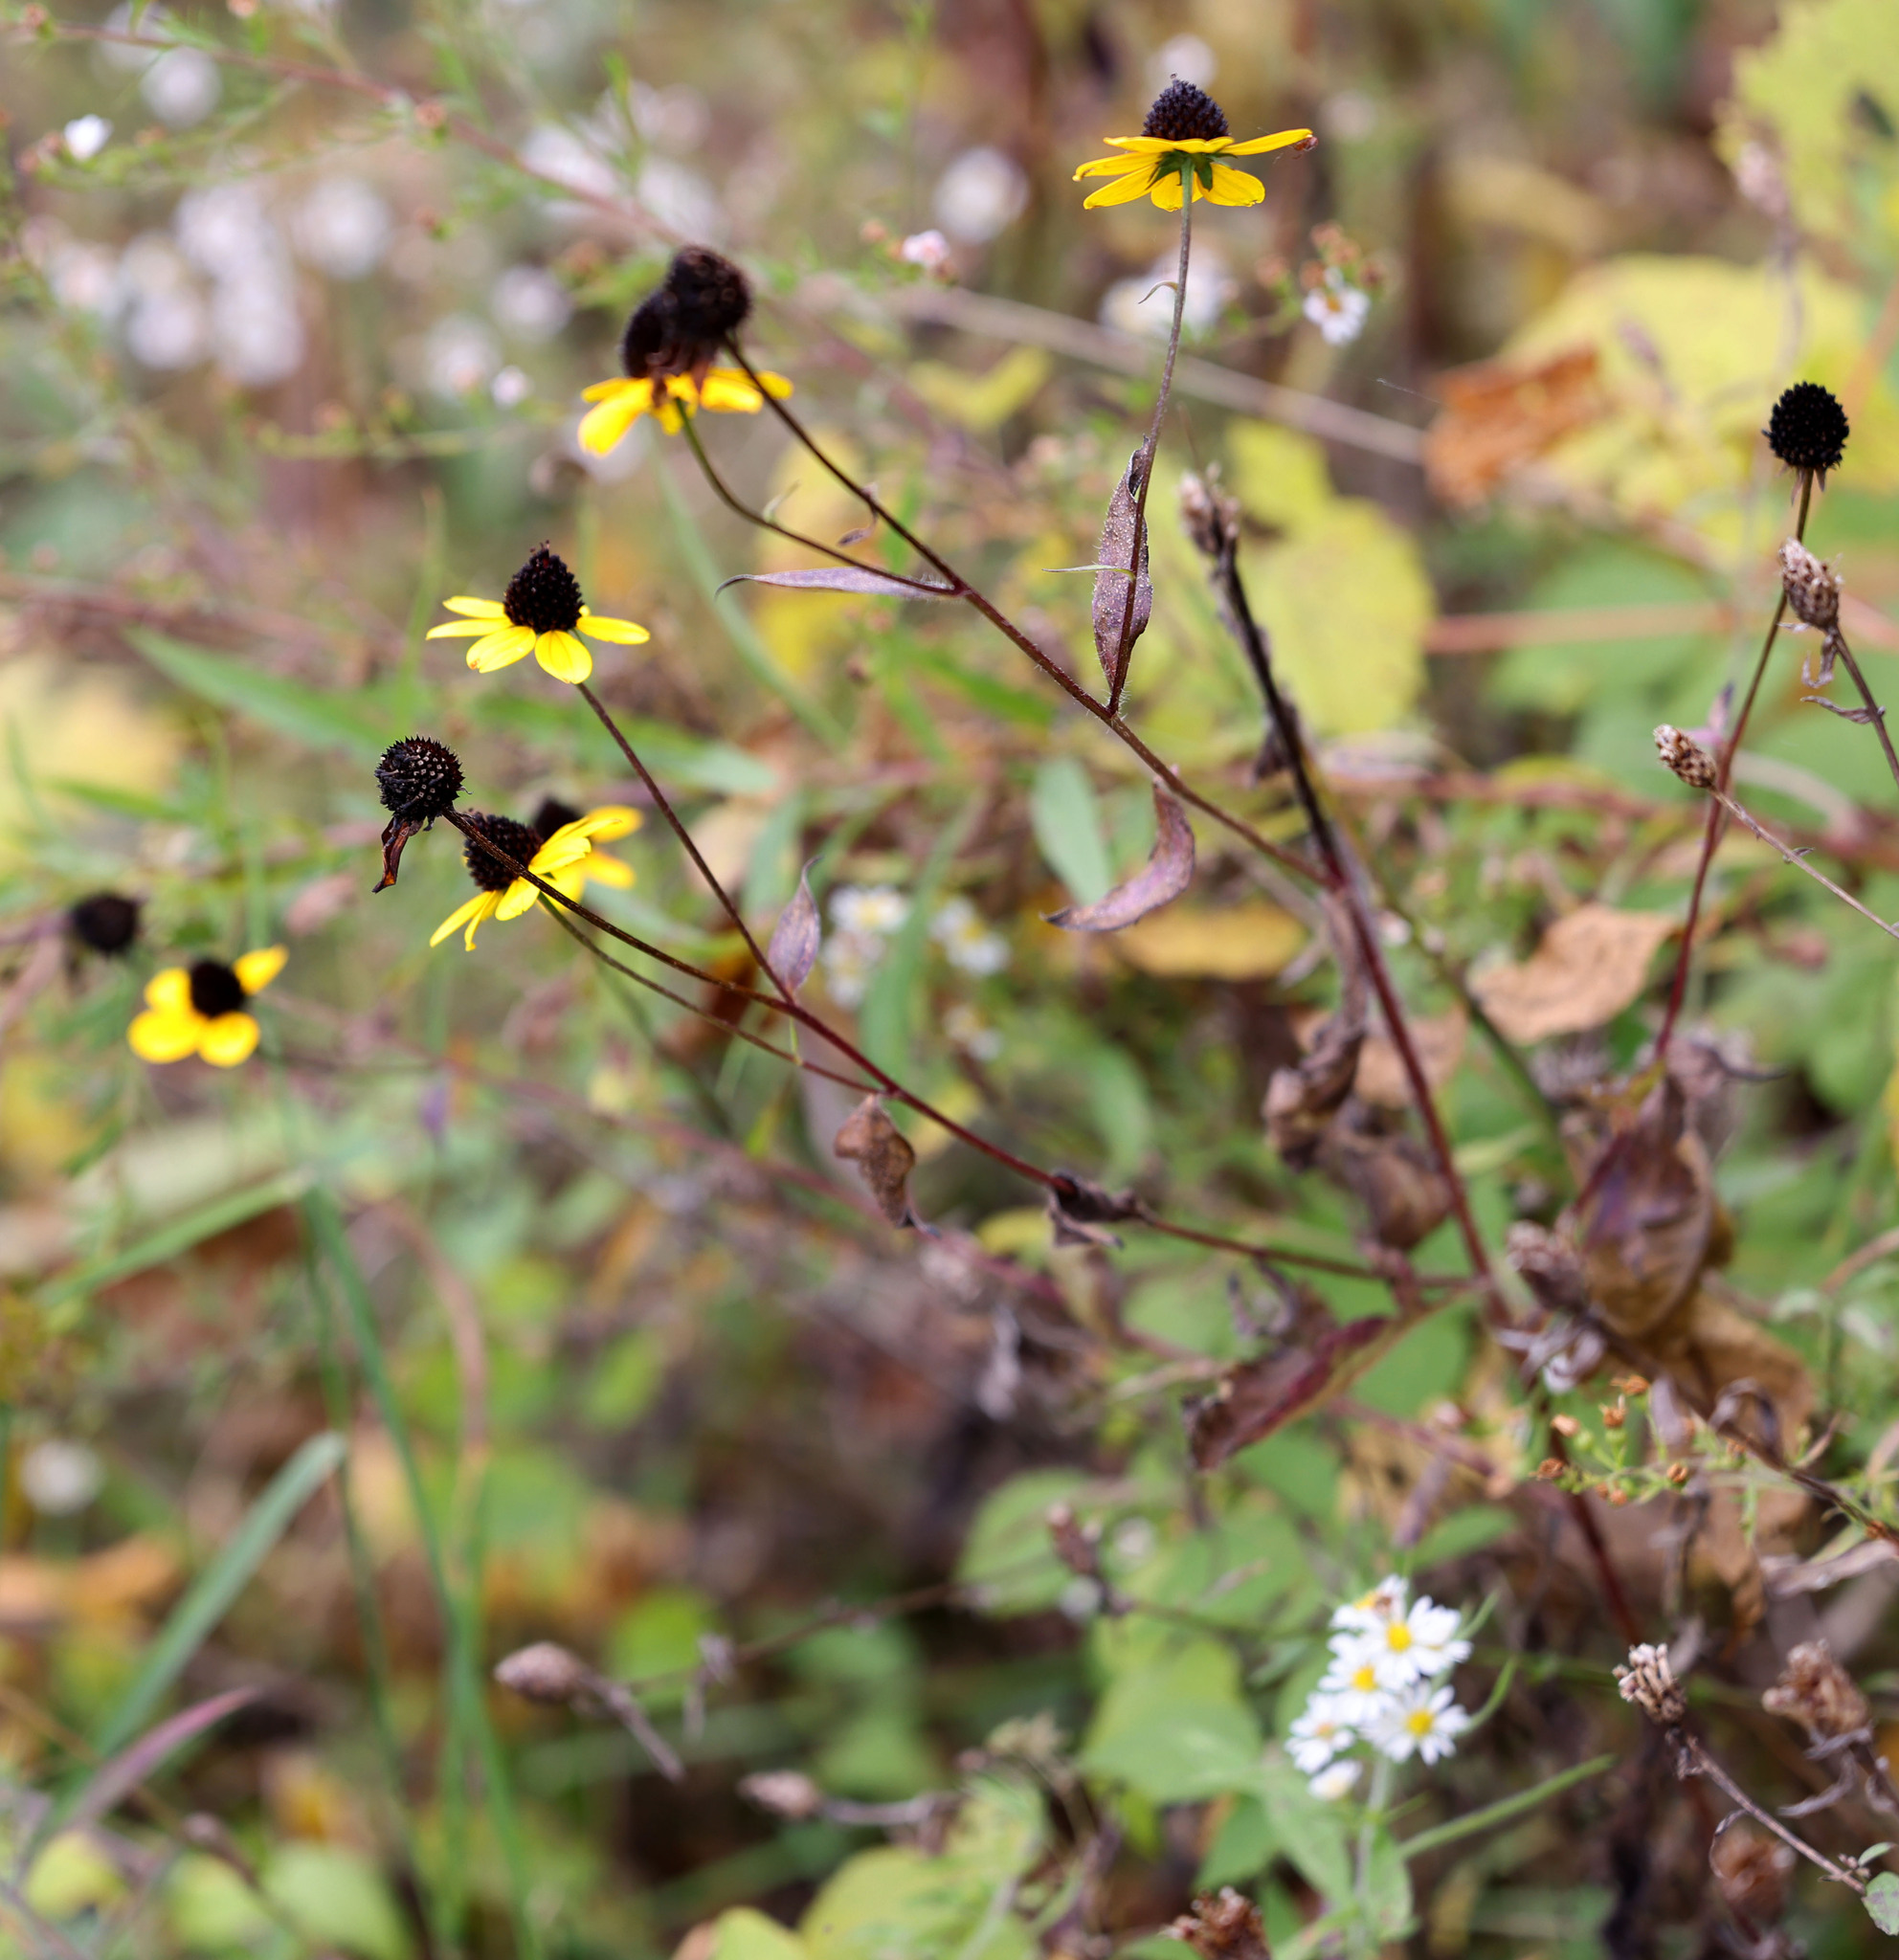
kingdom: Plantae
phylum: Tracheophyta
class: Magnoliopsida
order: Asterales
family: Asteraceae
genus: Rudbeckia
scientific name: Rudbeckia triloba
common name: Thin-leaved coneflower
